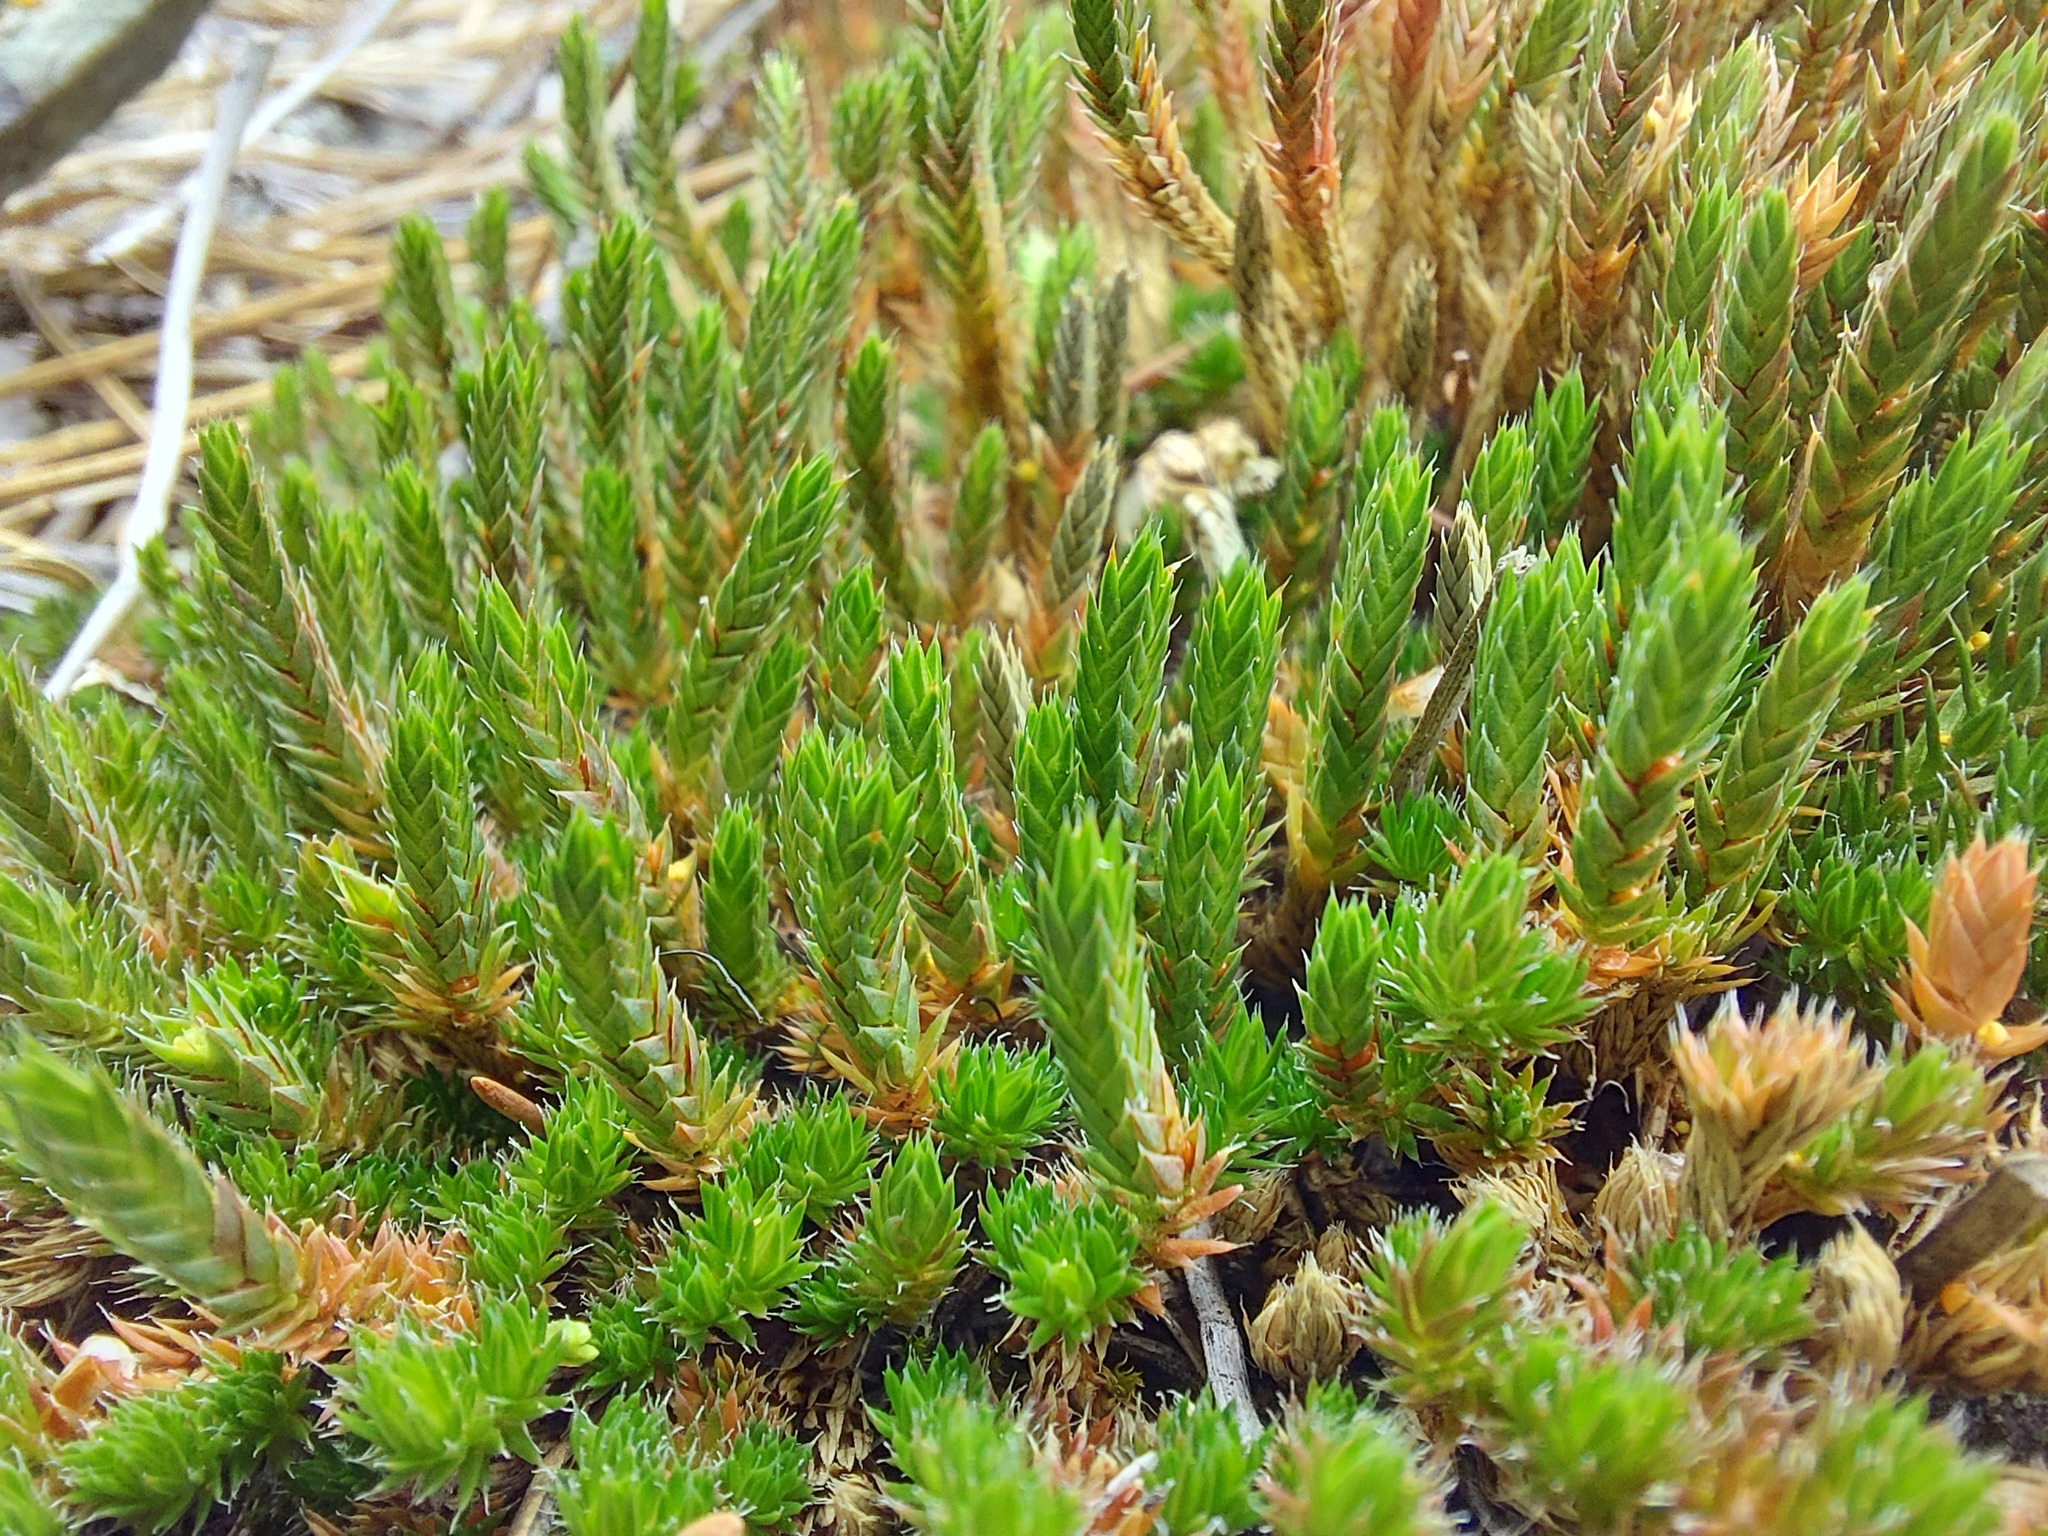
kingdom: Plantae
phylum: Tracheophyta
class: Lycopodiopsida
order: Selaginellales
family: Selaginellaceae
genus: Selaginella
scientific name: Selaginella densa
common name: Mountain spike-moss
